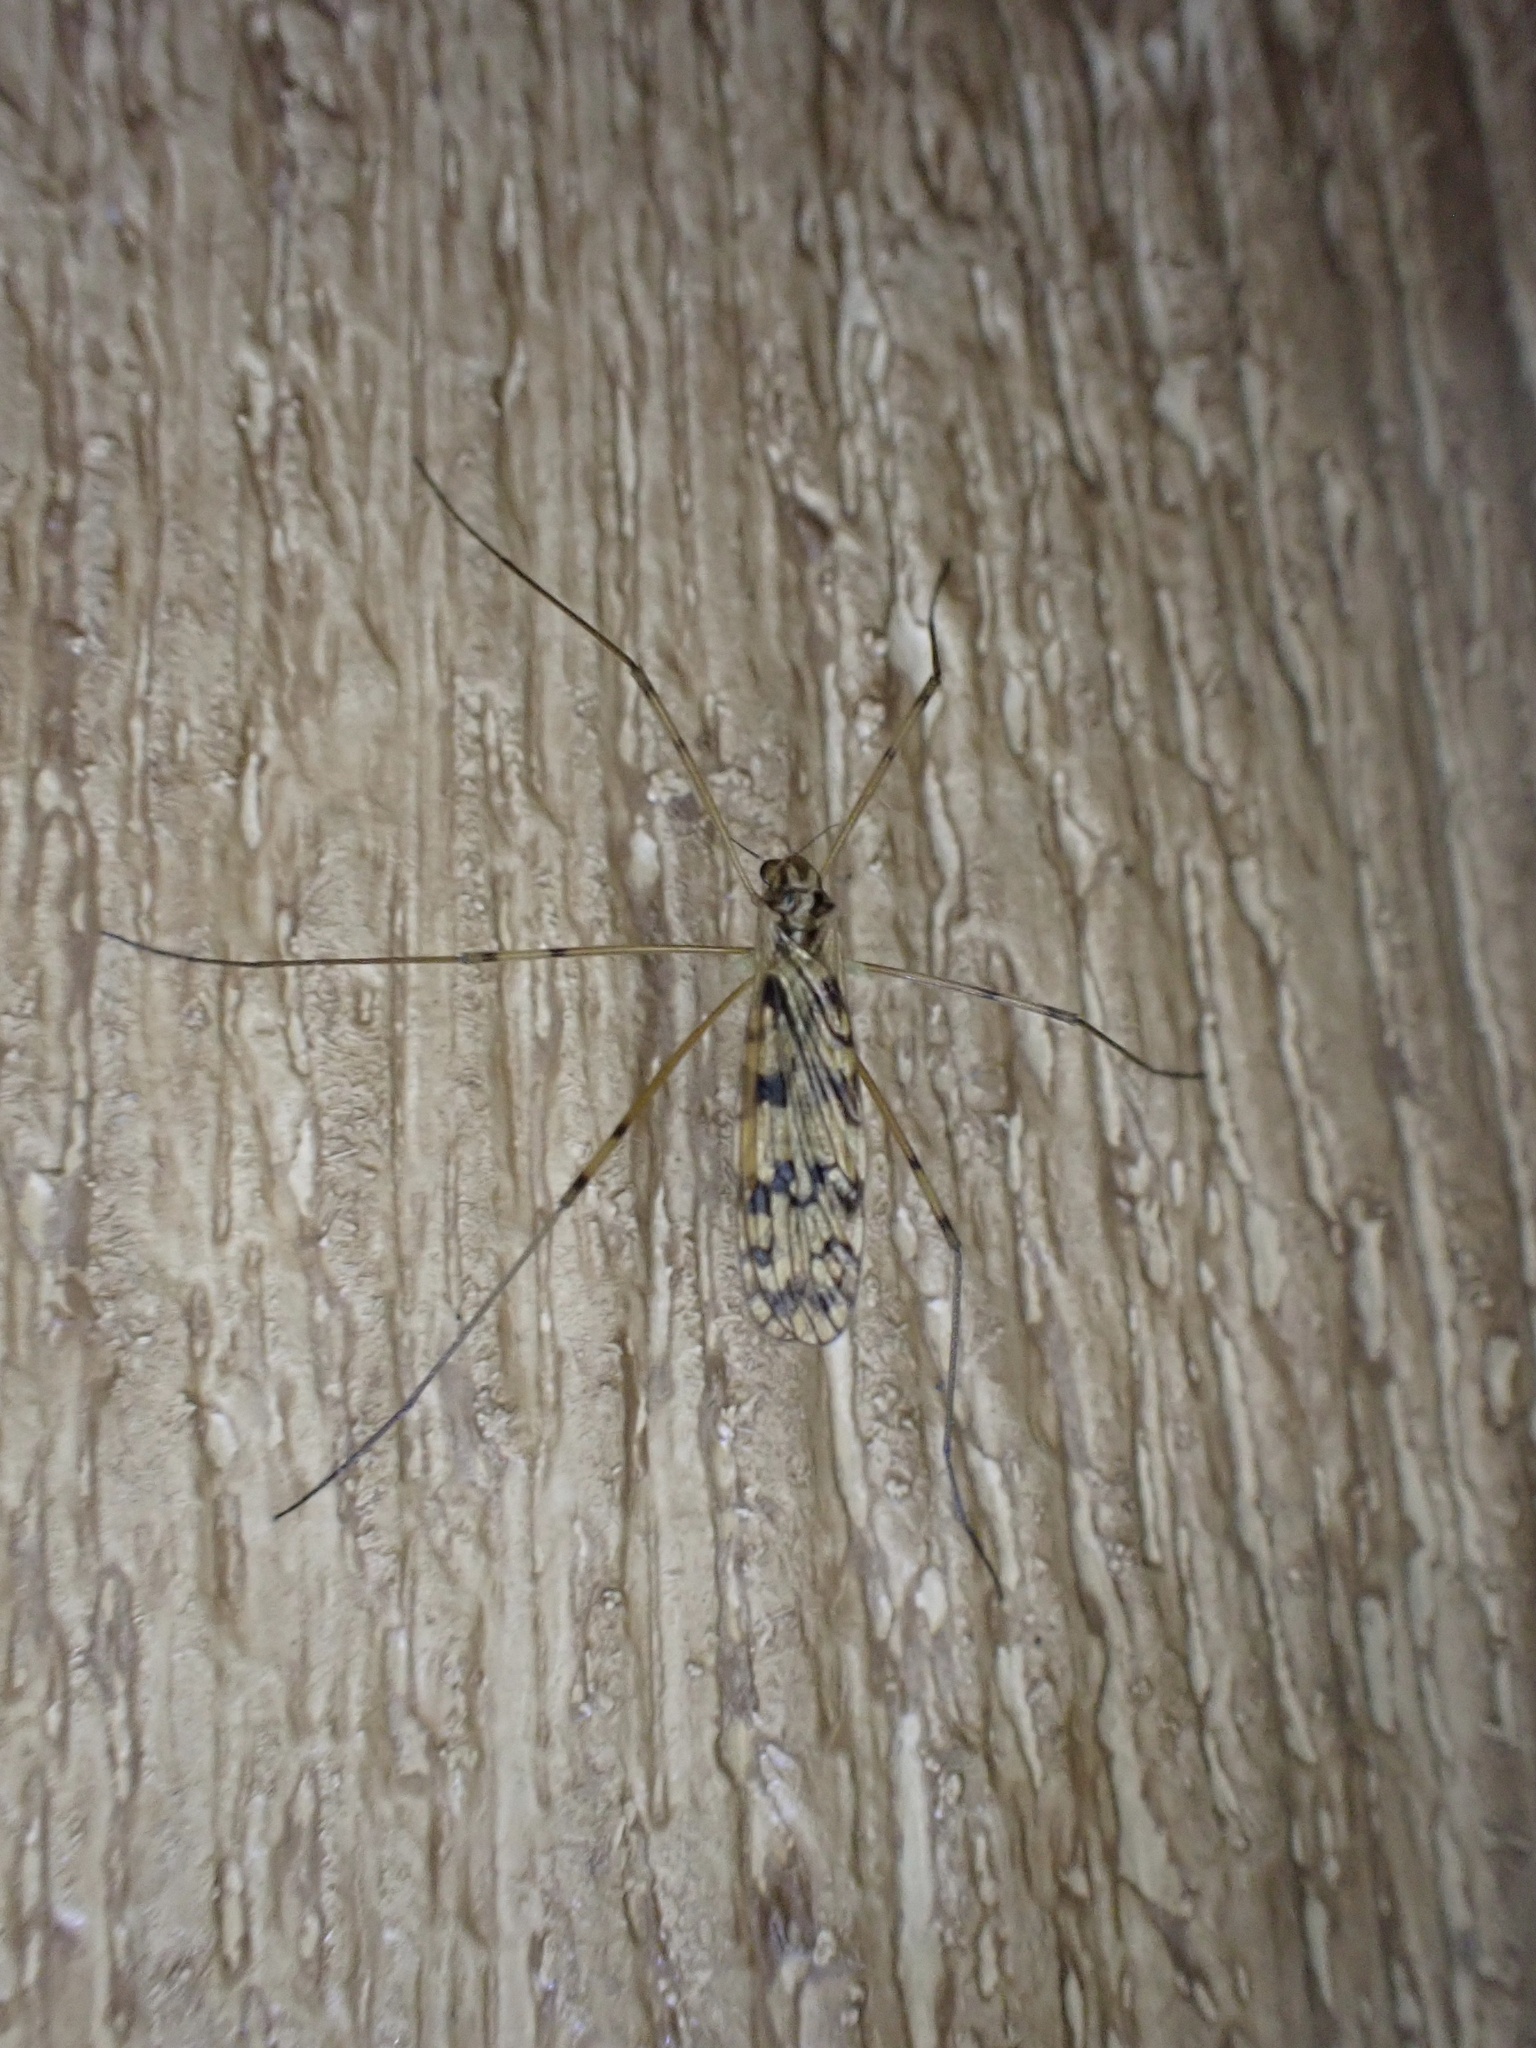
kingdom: Animalia
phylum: Arthropoda
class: Insecta
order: Diptera
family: Limoniidae
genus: Limonia
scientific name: Limonia cinctipes
